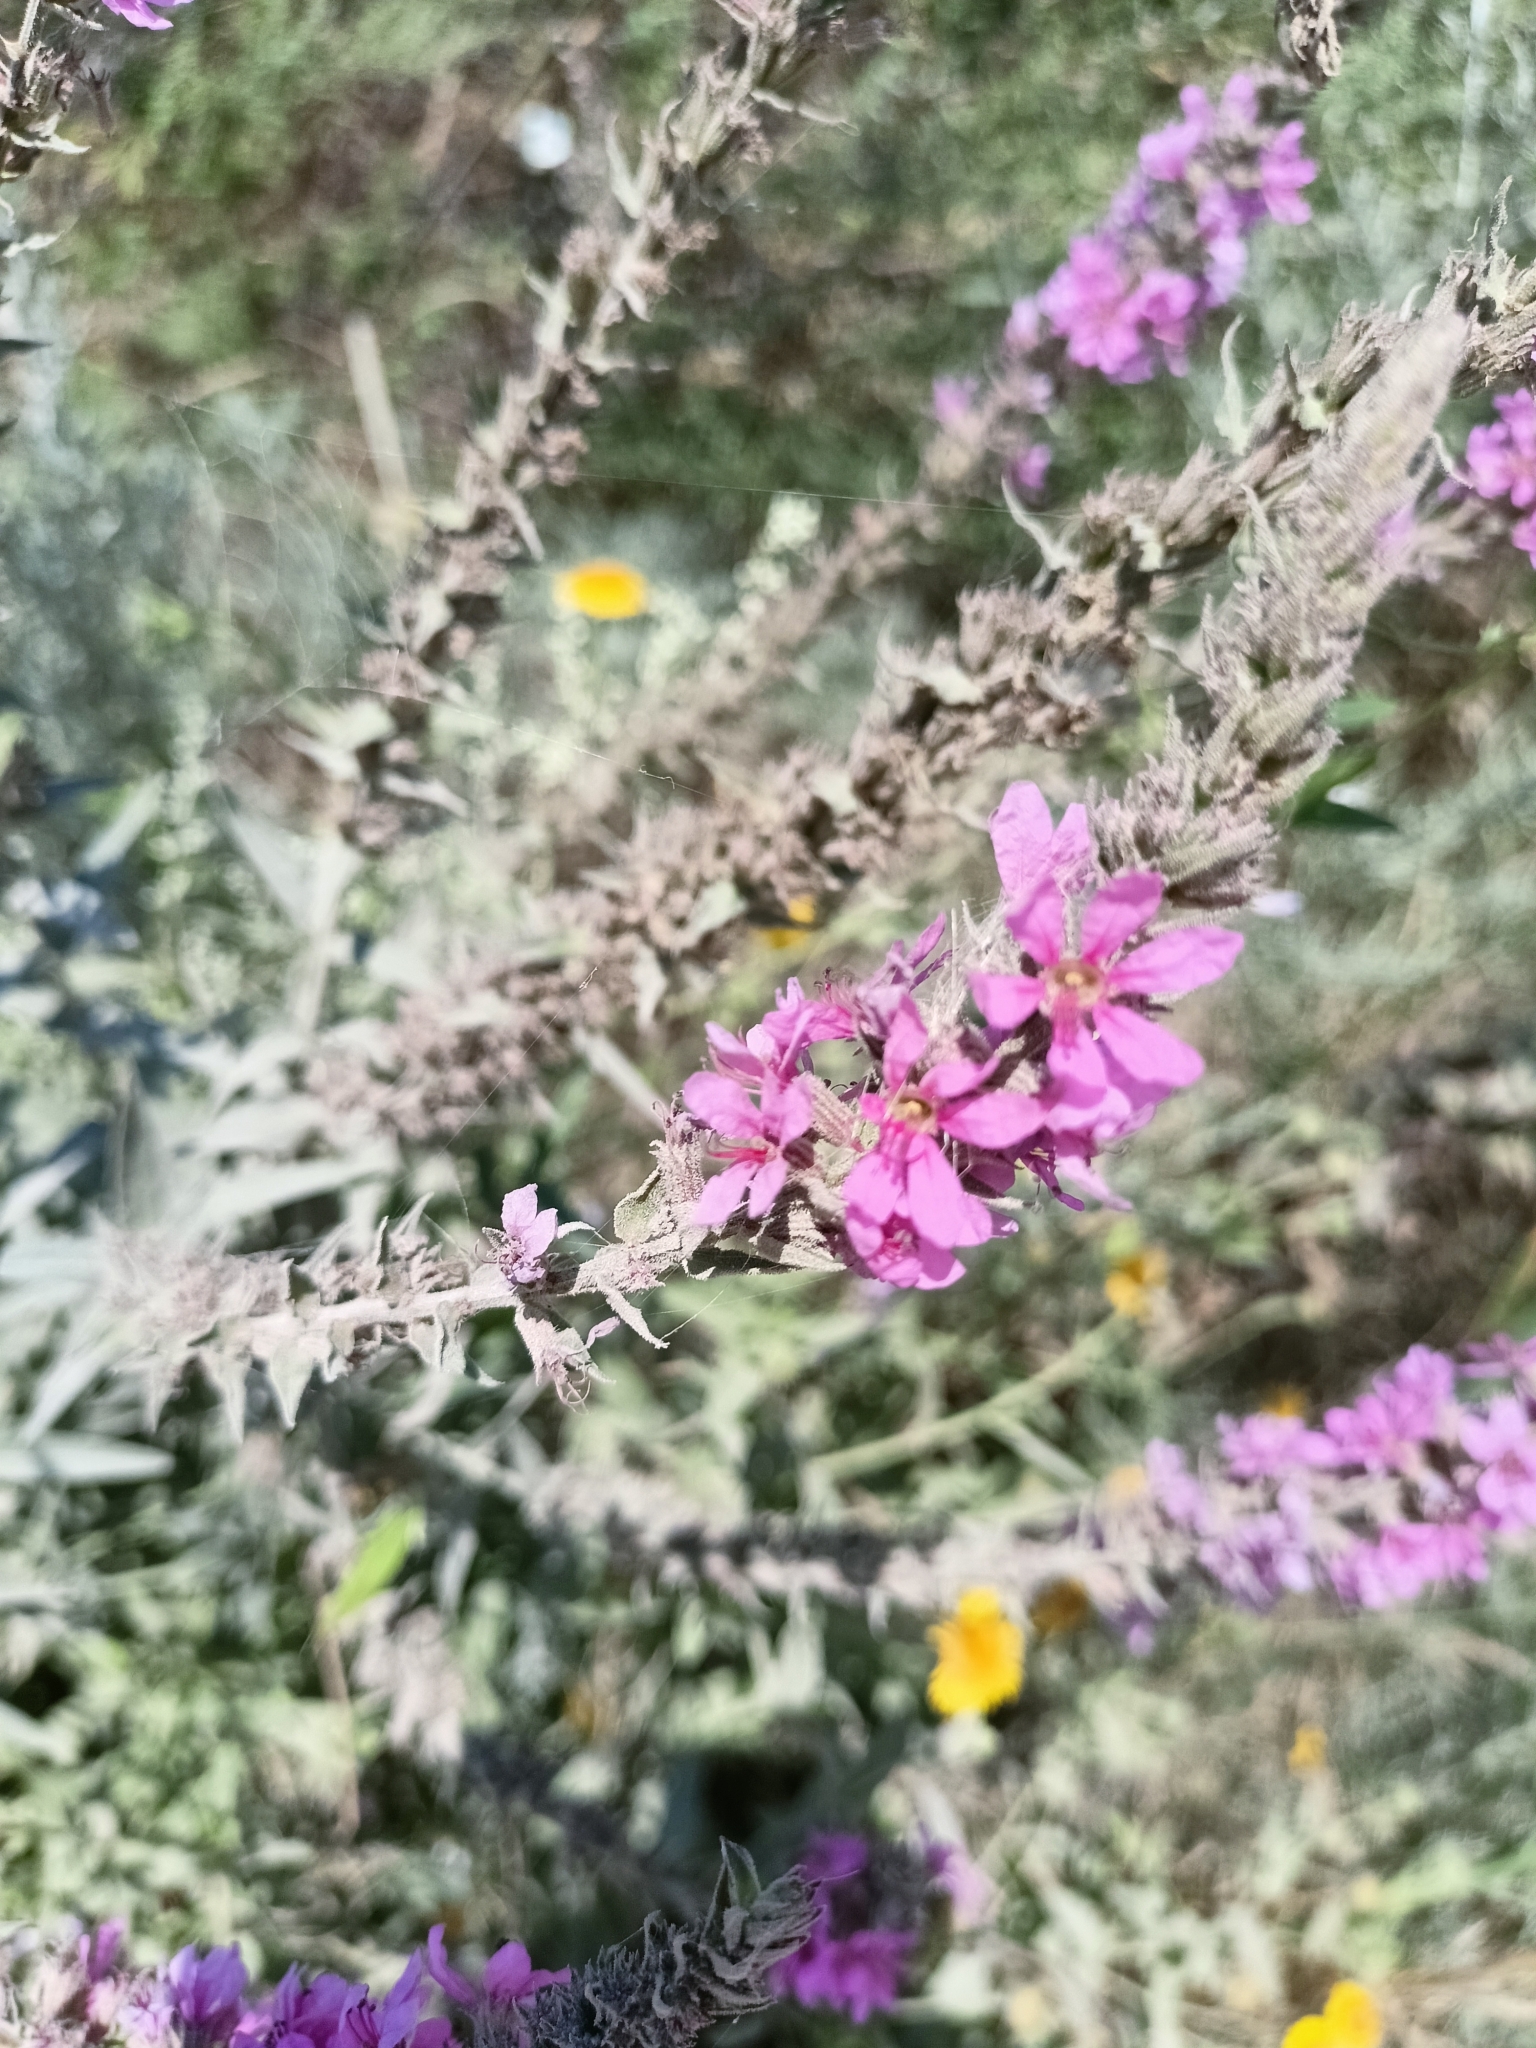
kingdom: Plantae
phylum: Tracheophyta
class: Magnoliopsida
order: Myrtales
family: Lythraceae
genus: Lythrum
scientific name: Lythrum salicaria
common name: Purple loosestrife
